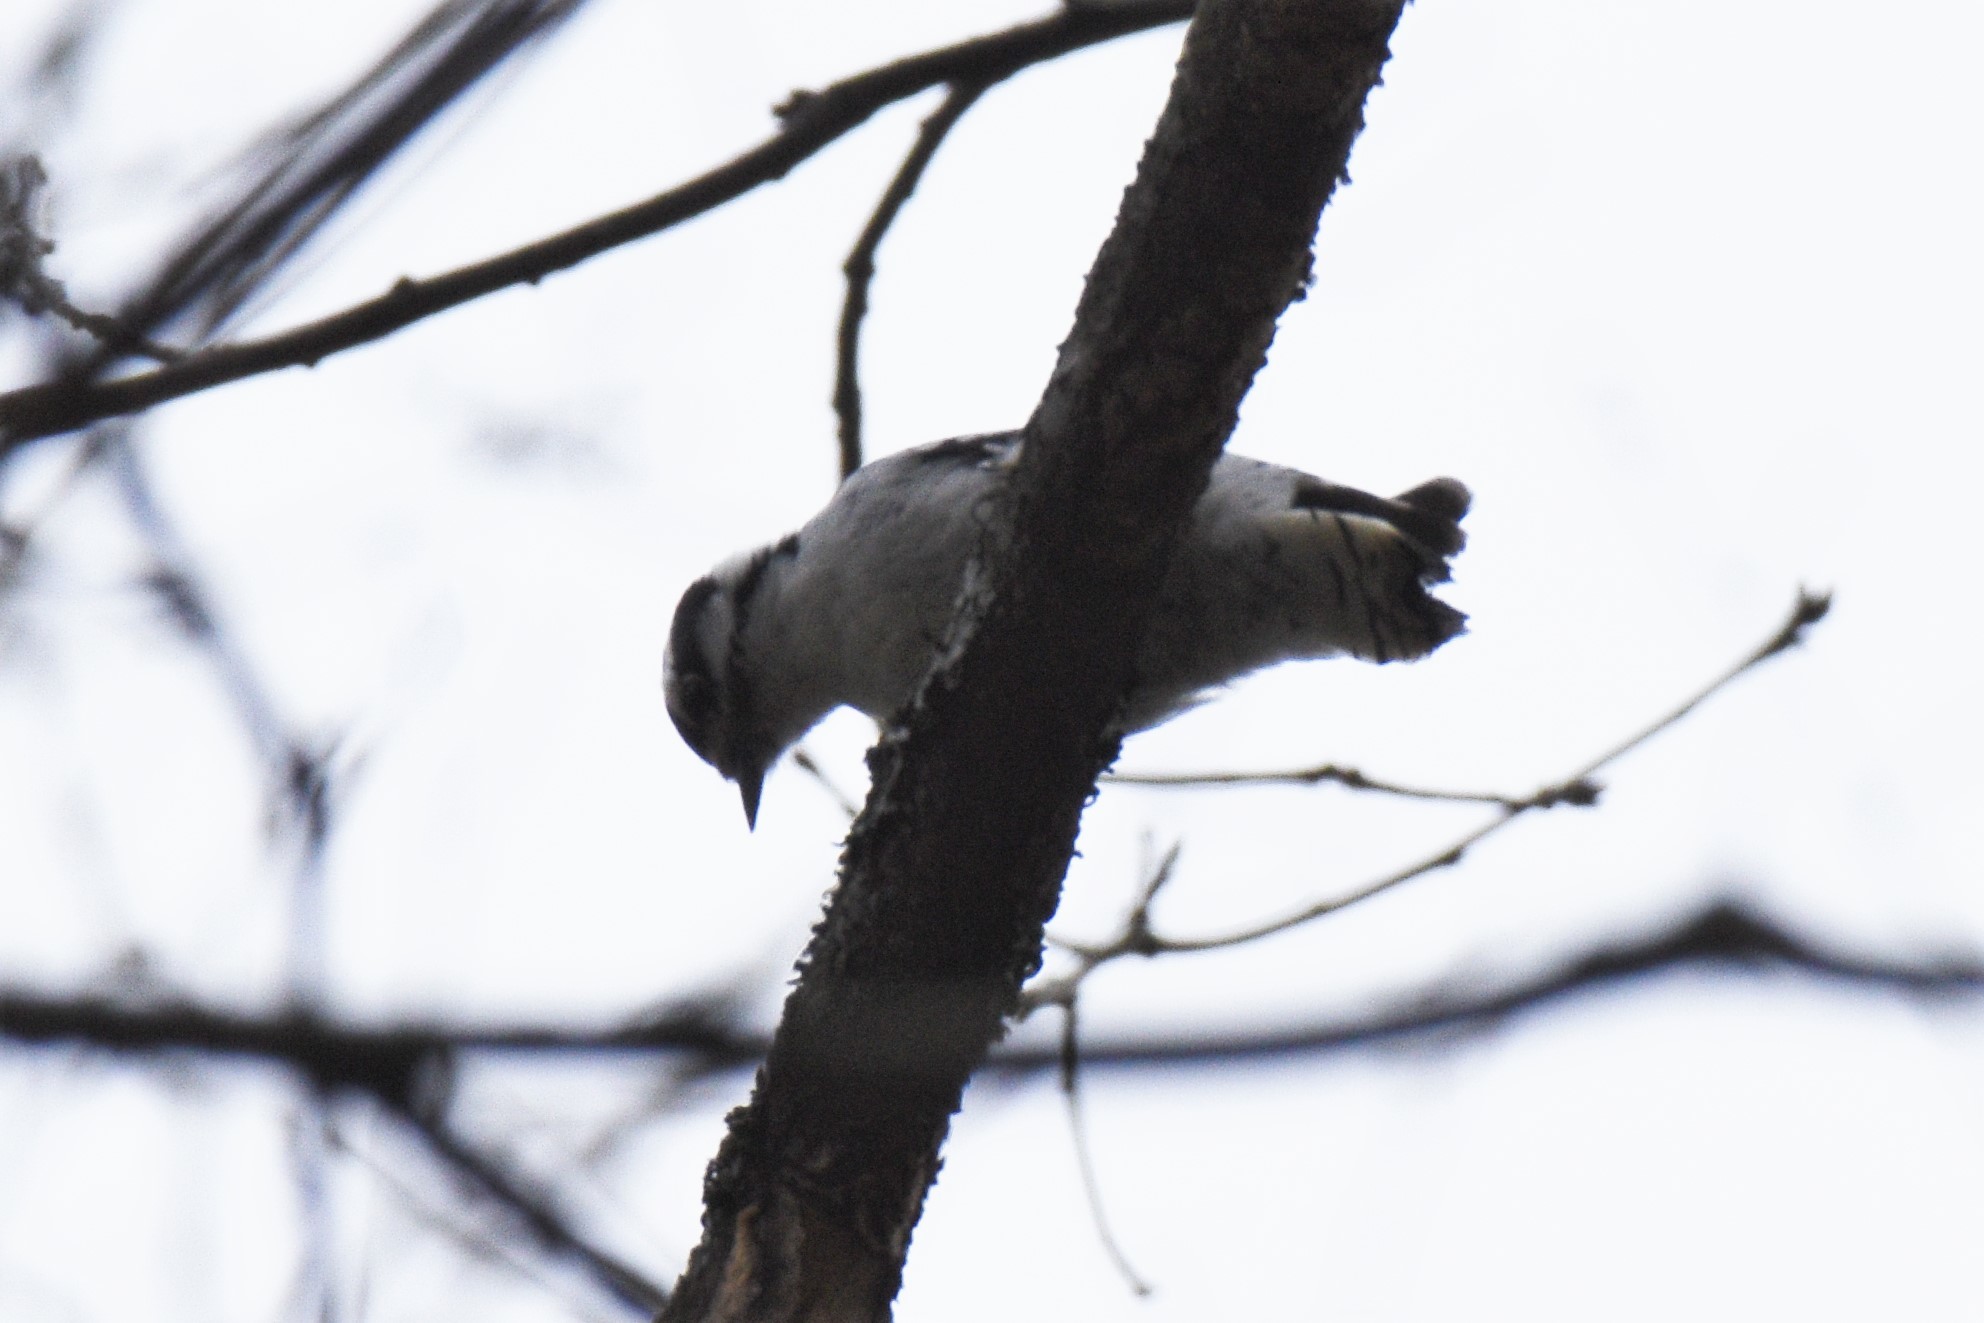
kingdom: Animalia
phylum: Chordata
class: Aves
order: Piciformes
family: Picidae
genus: Dryobates
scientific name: Dryobates pubescens
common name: Downy woodpecker
